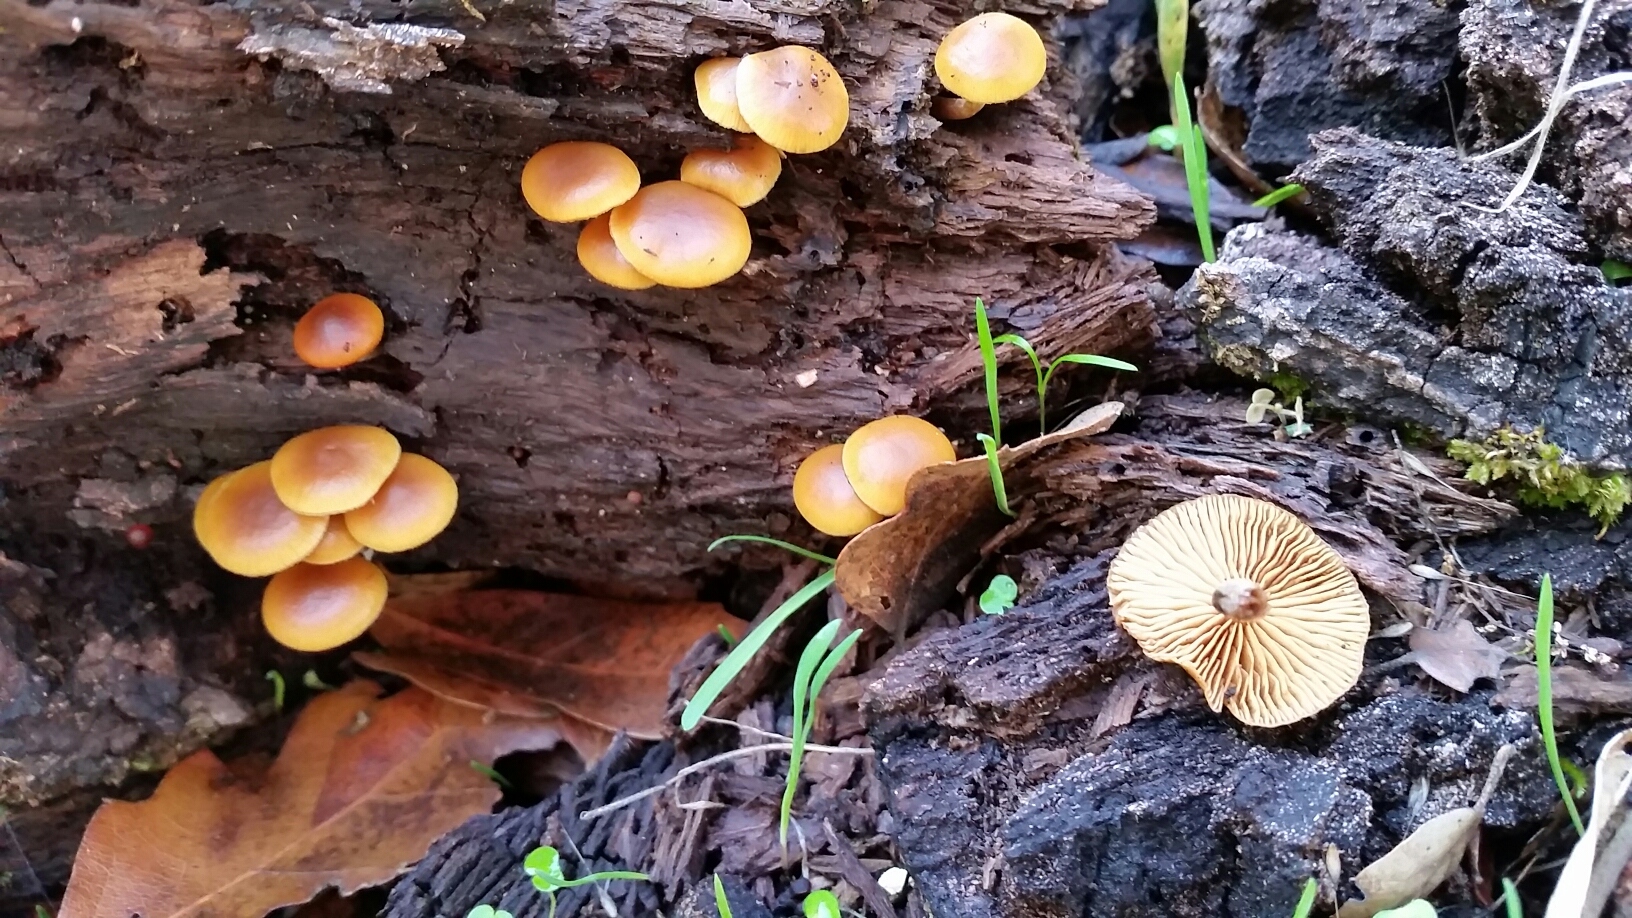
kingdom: Fungi
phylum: Basidiomycota
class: Agaricomycetes
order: Agaricales
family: Hymenogastraceae
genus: Galerina
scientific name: Galerina marginata
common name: Funeral bell
